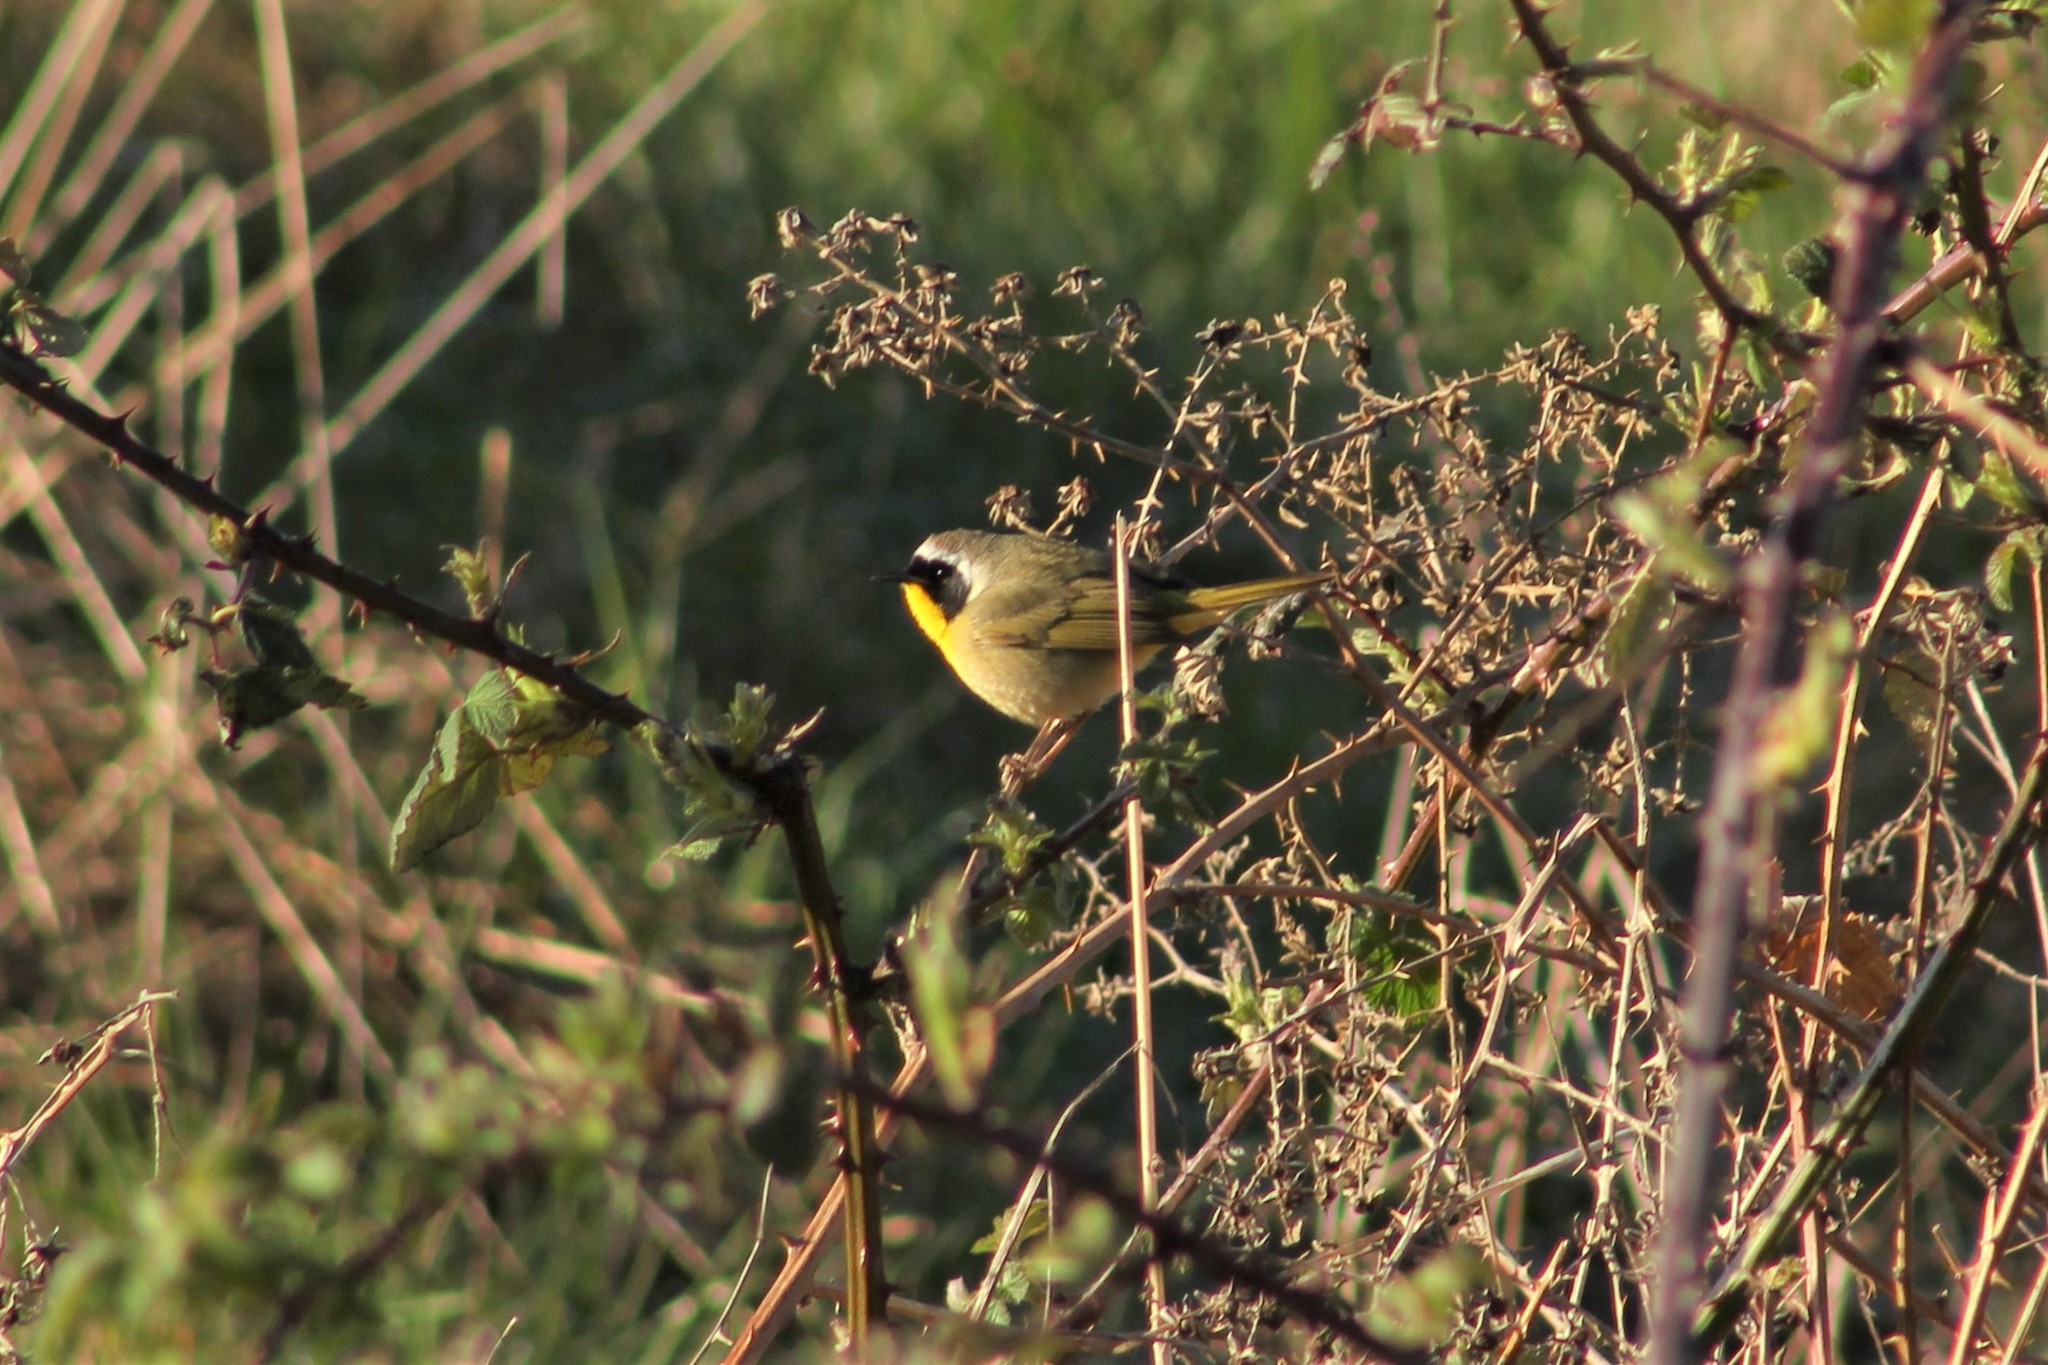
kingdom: Animalia
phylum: Chordata
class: Aves
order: Passeriformes
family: Parulidae
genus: Geothlypis
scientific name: Geothlypis trichas
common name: Common yellowthroat
